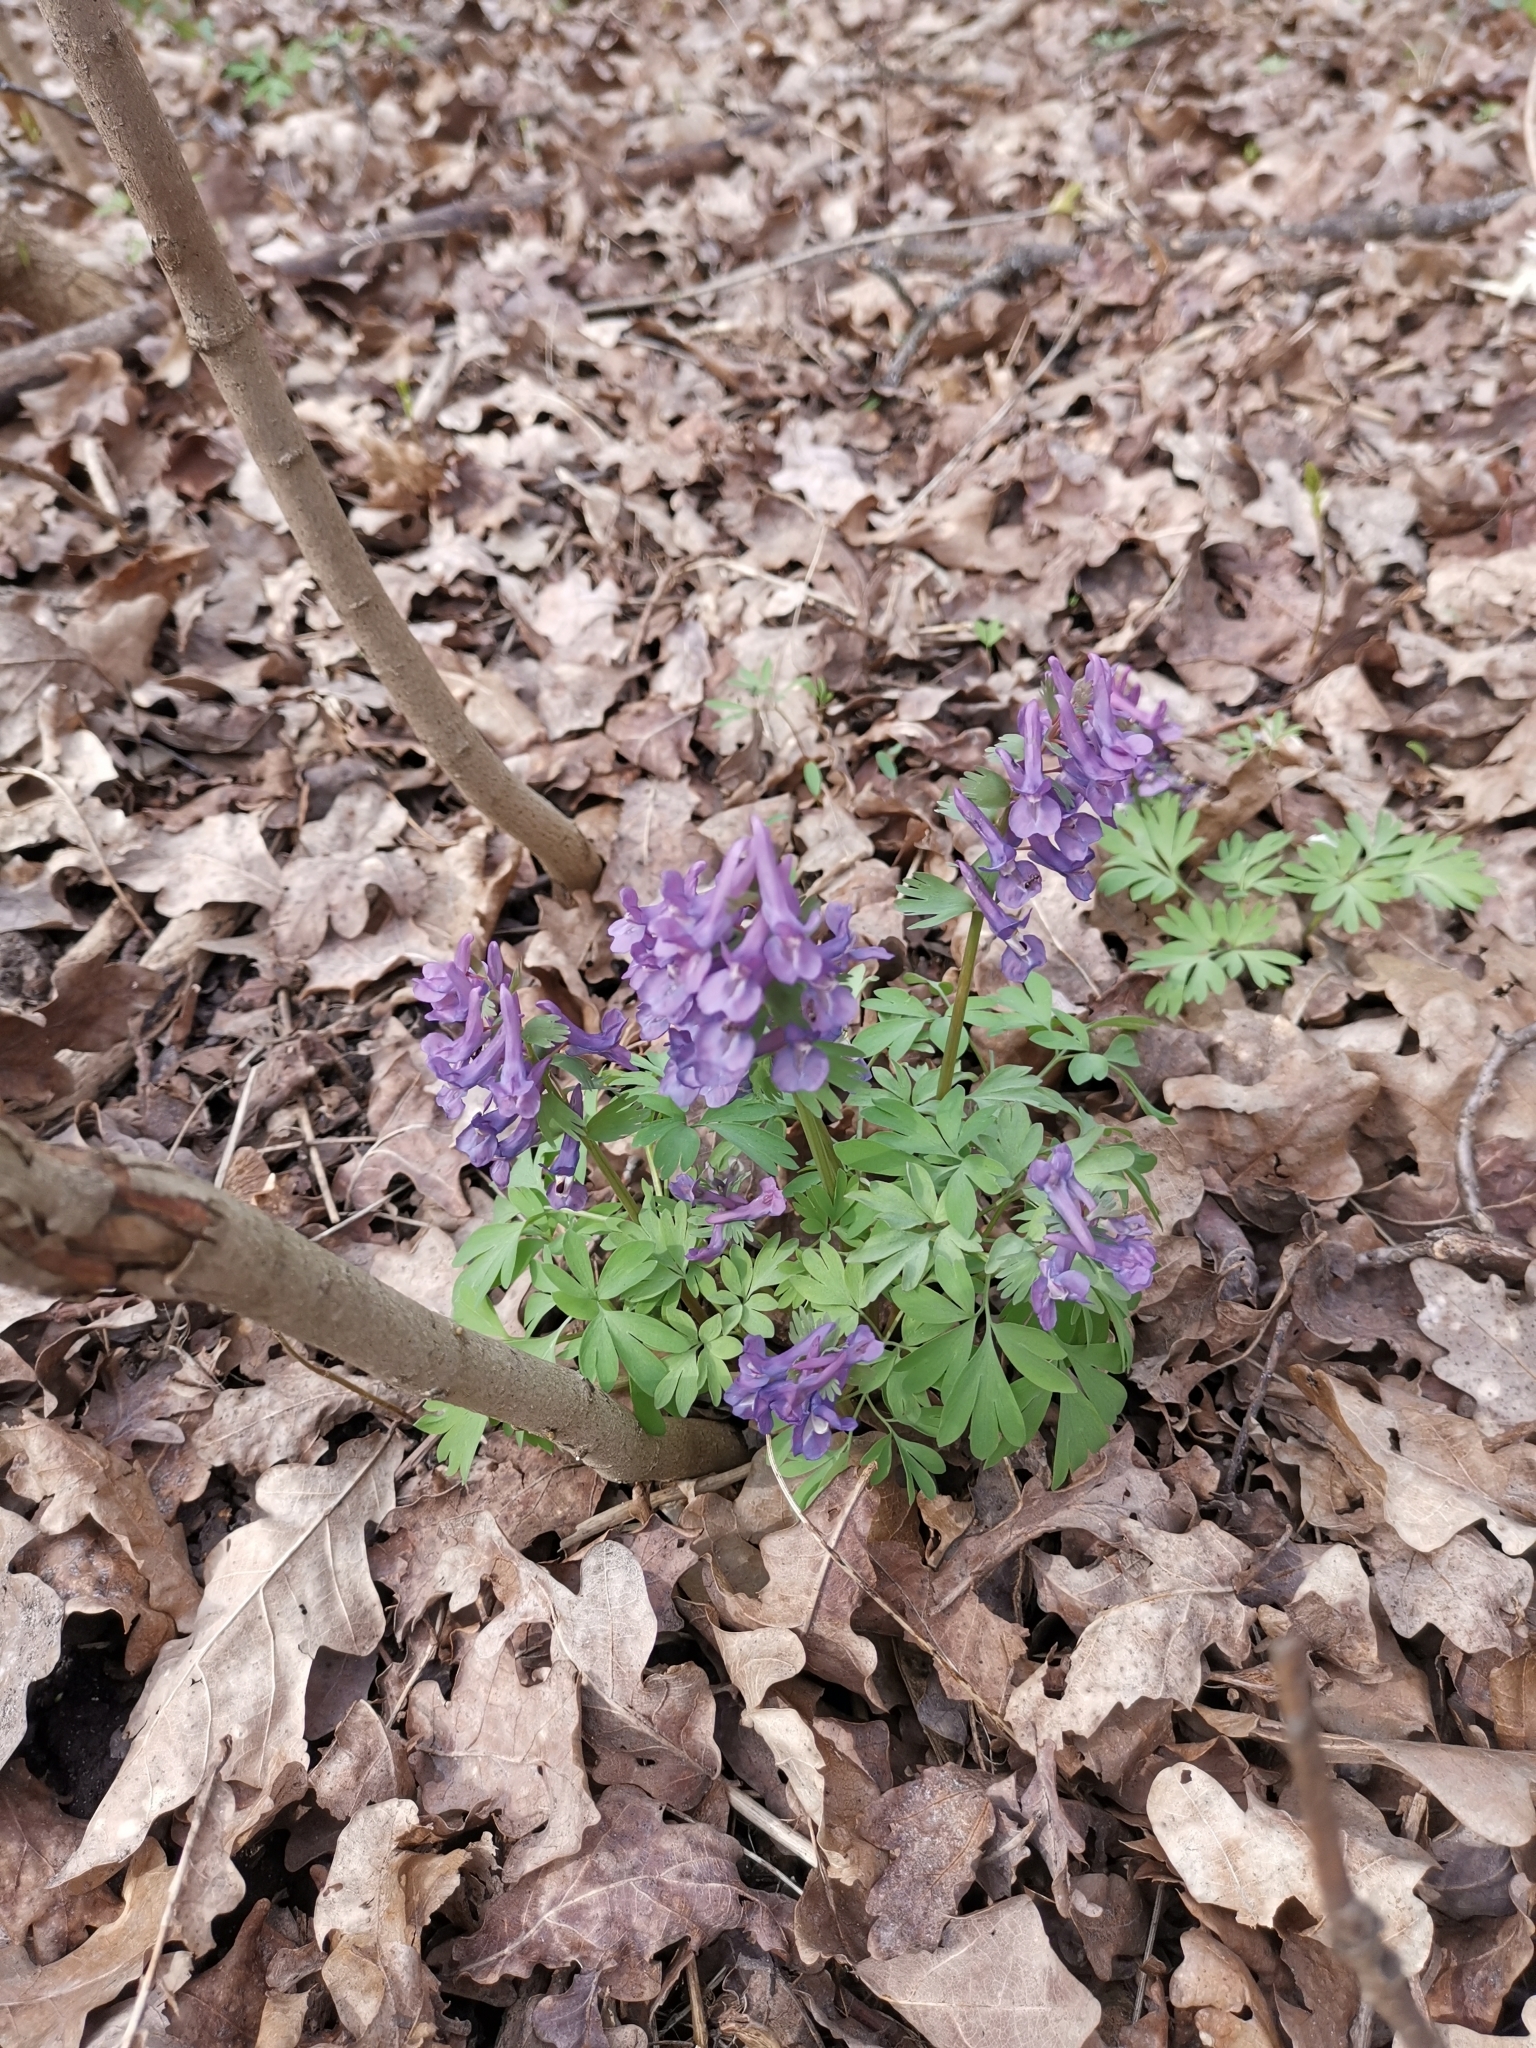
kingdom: Plantae
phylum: Tracheophyta
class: Magnoliopsida
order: Ranunculales
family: Papaveraceae
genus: Corydalis
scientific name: Corydalis solida
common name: Bird-in-a-bush
